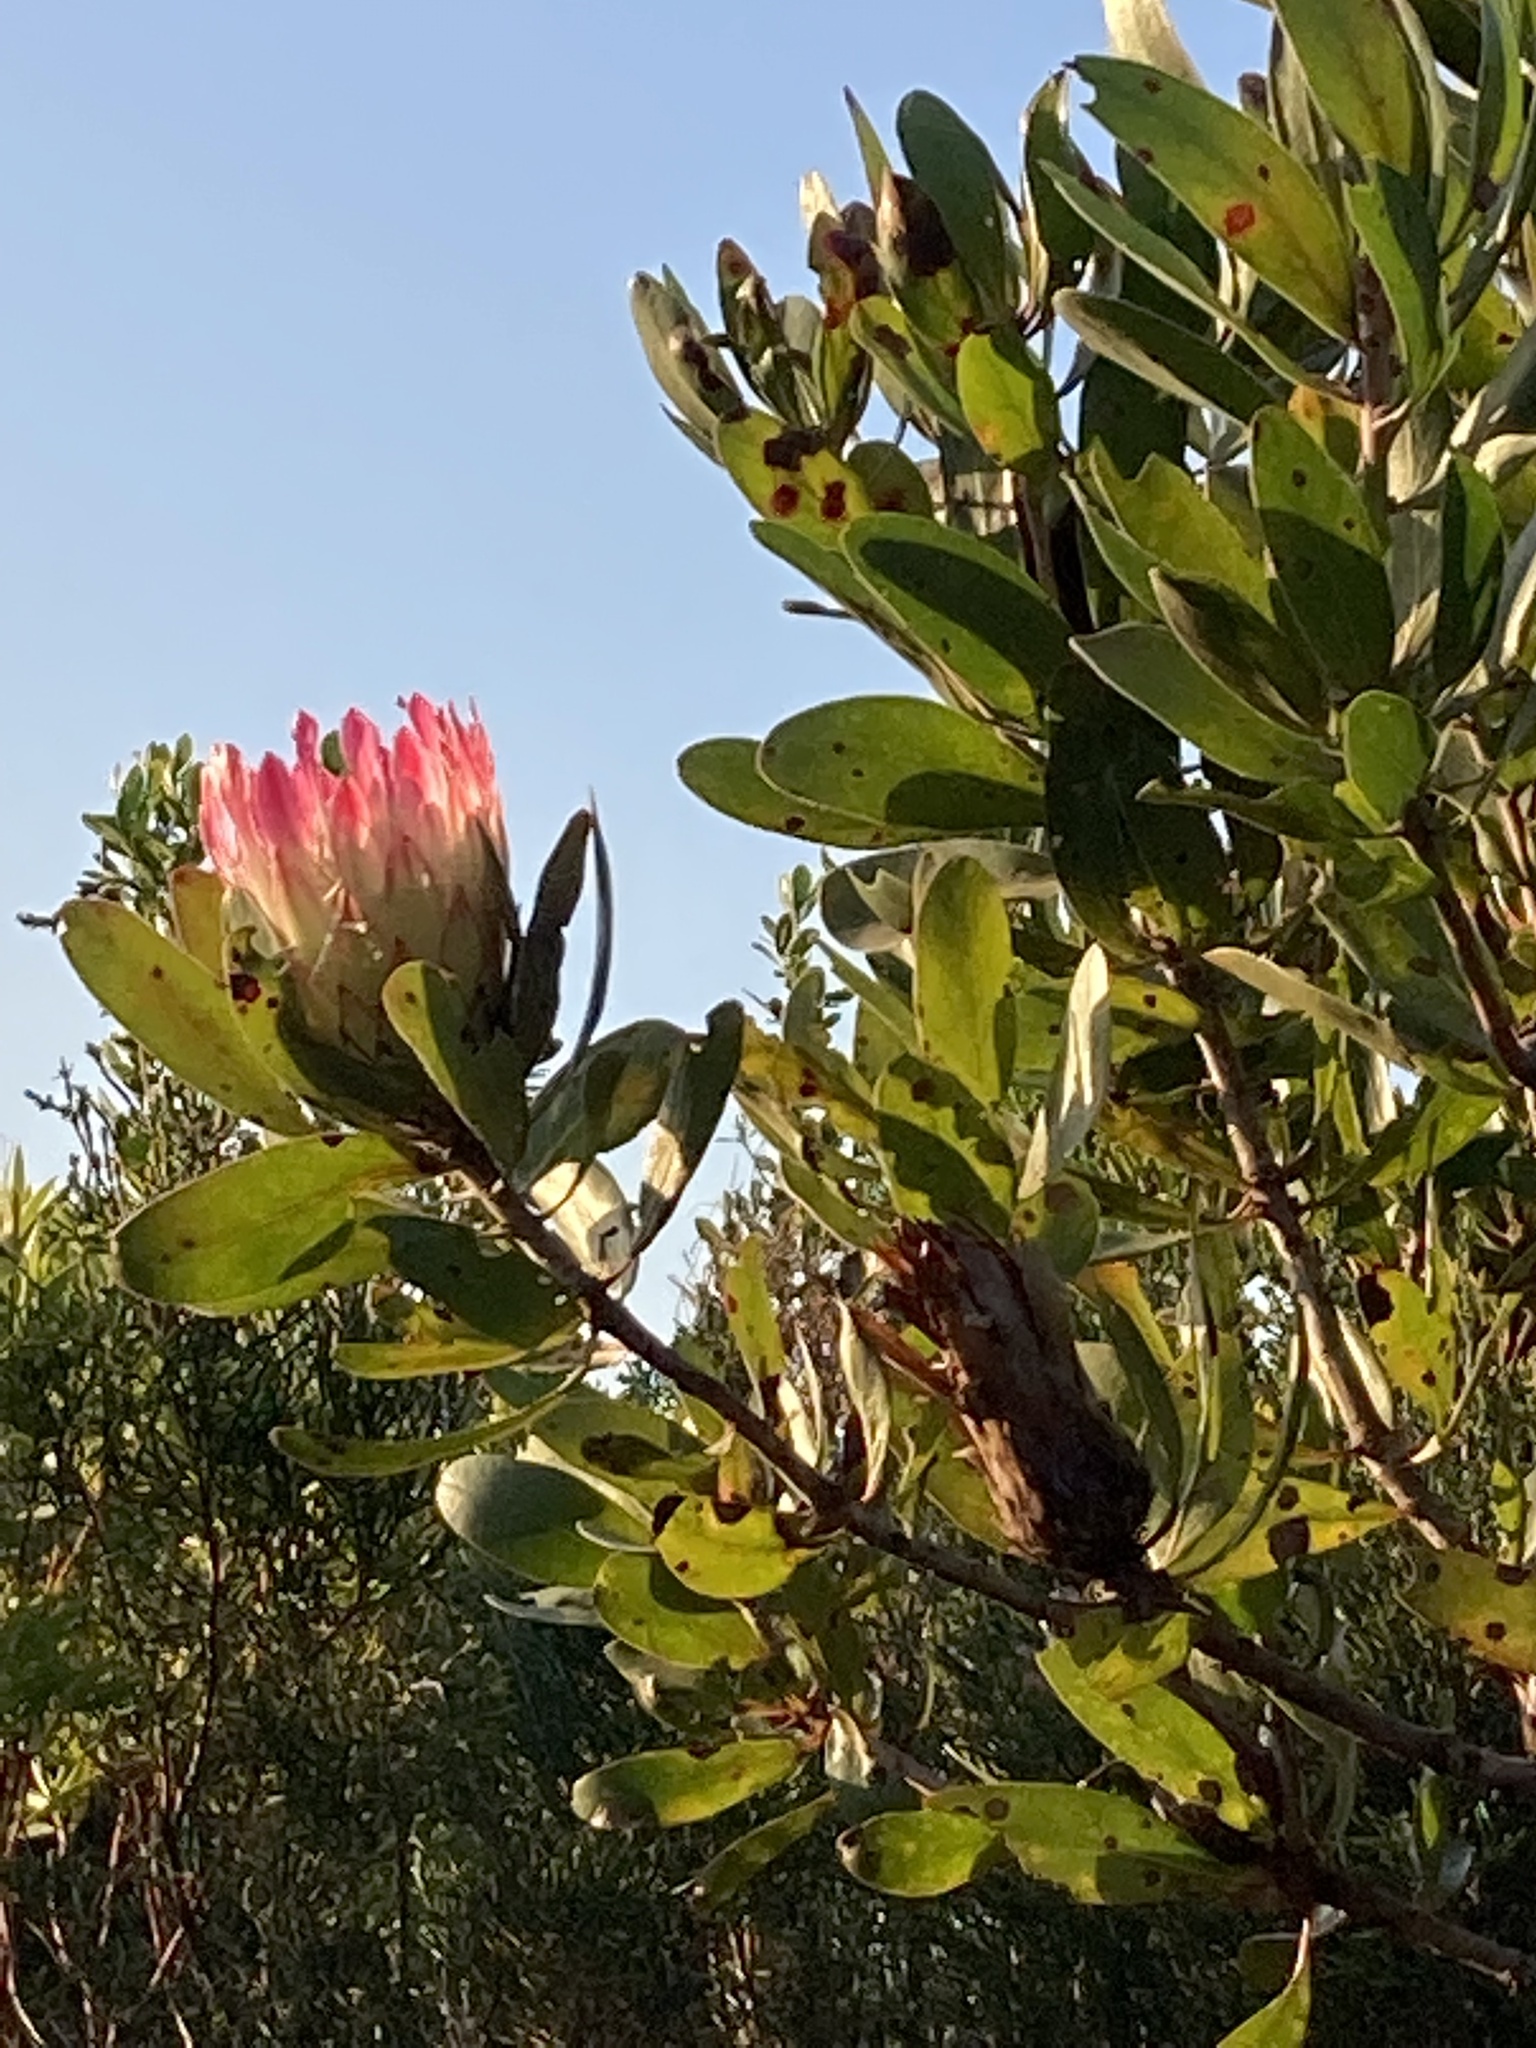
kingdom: Plantae
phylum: Tracheophyta
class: Magnoliopsida
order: Proteales
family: Proteaceae
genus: Protea
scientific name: Protea obtusifolia
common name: Bredasdorp sugarbush
